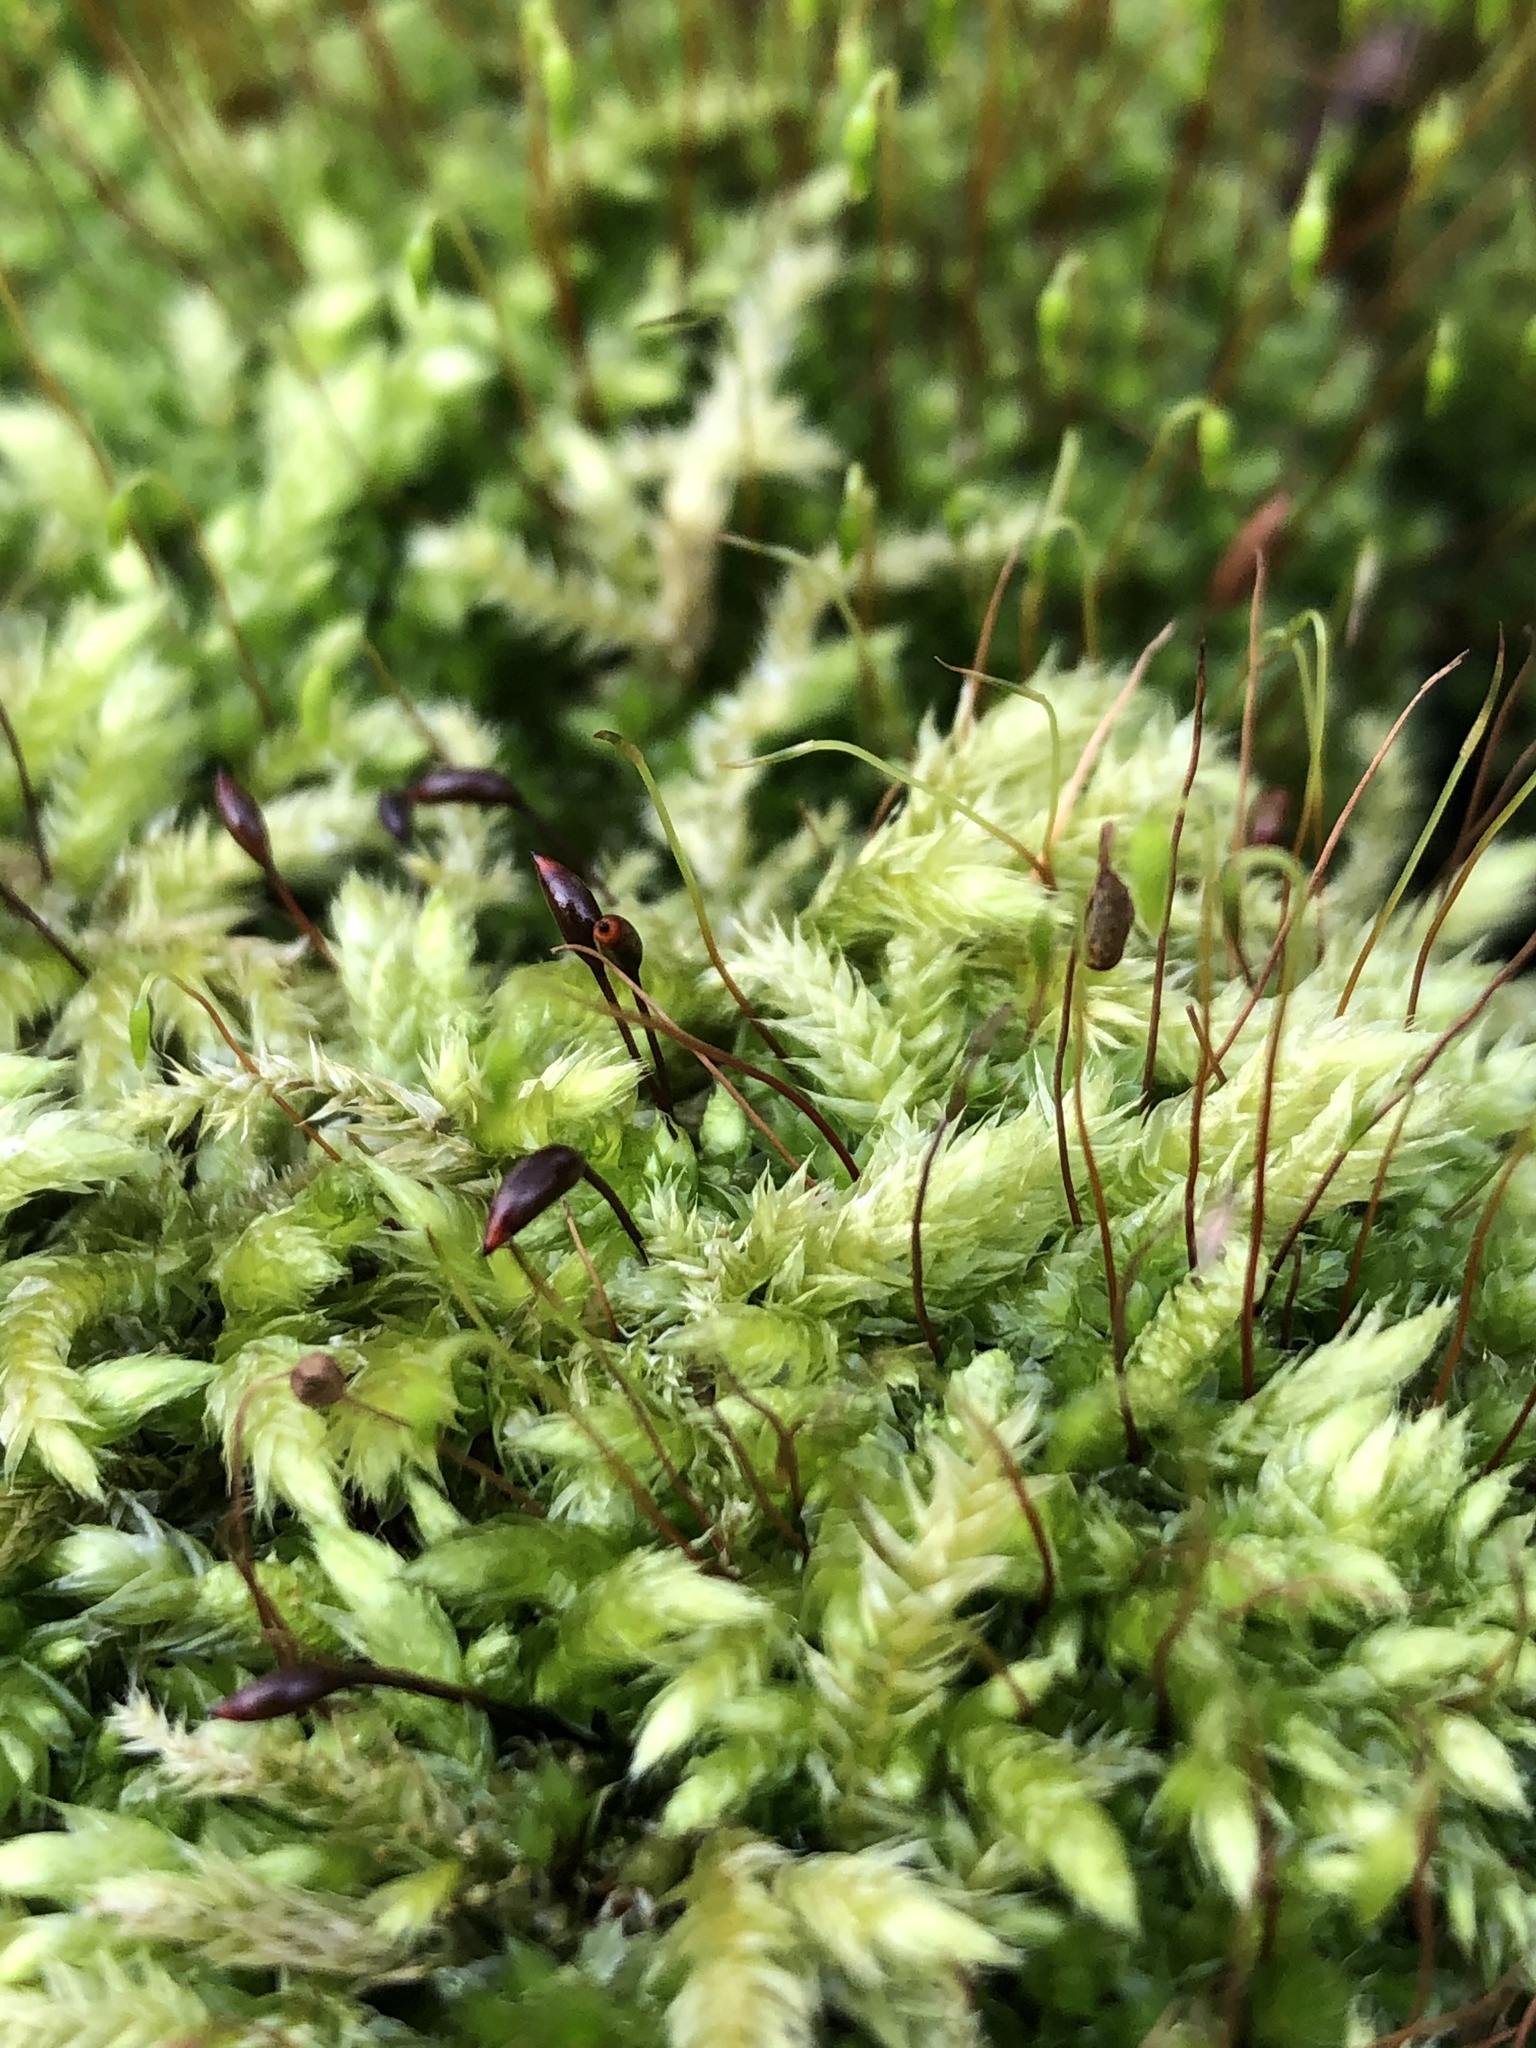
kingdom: Plantae
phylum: Bryophyta
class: Bryopsida
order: Hypnales
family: Brachytheciaceae
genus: Brachythecium
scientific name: Brachythecium rutabulum
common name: Rough-stalked feather-moss
